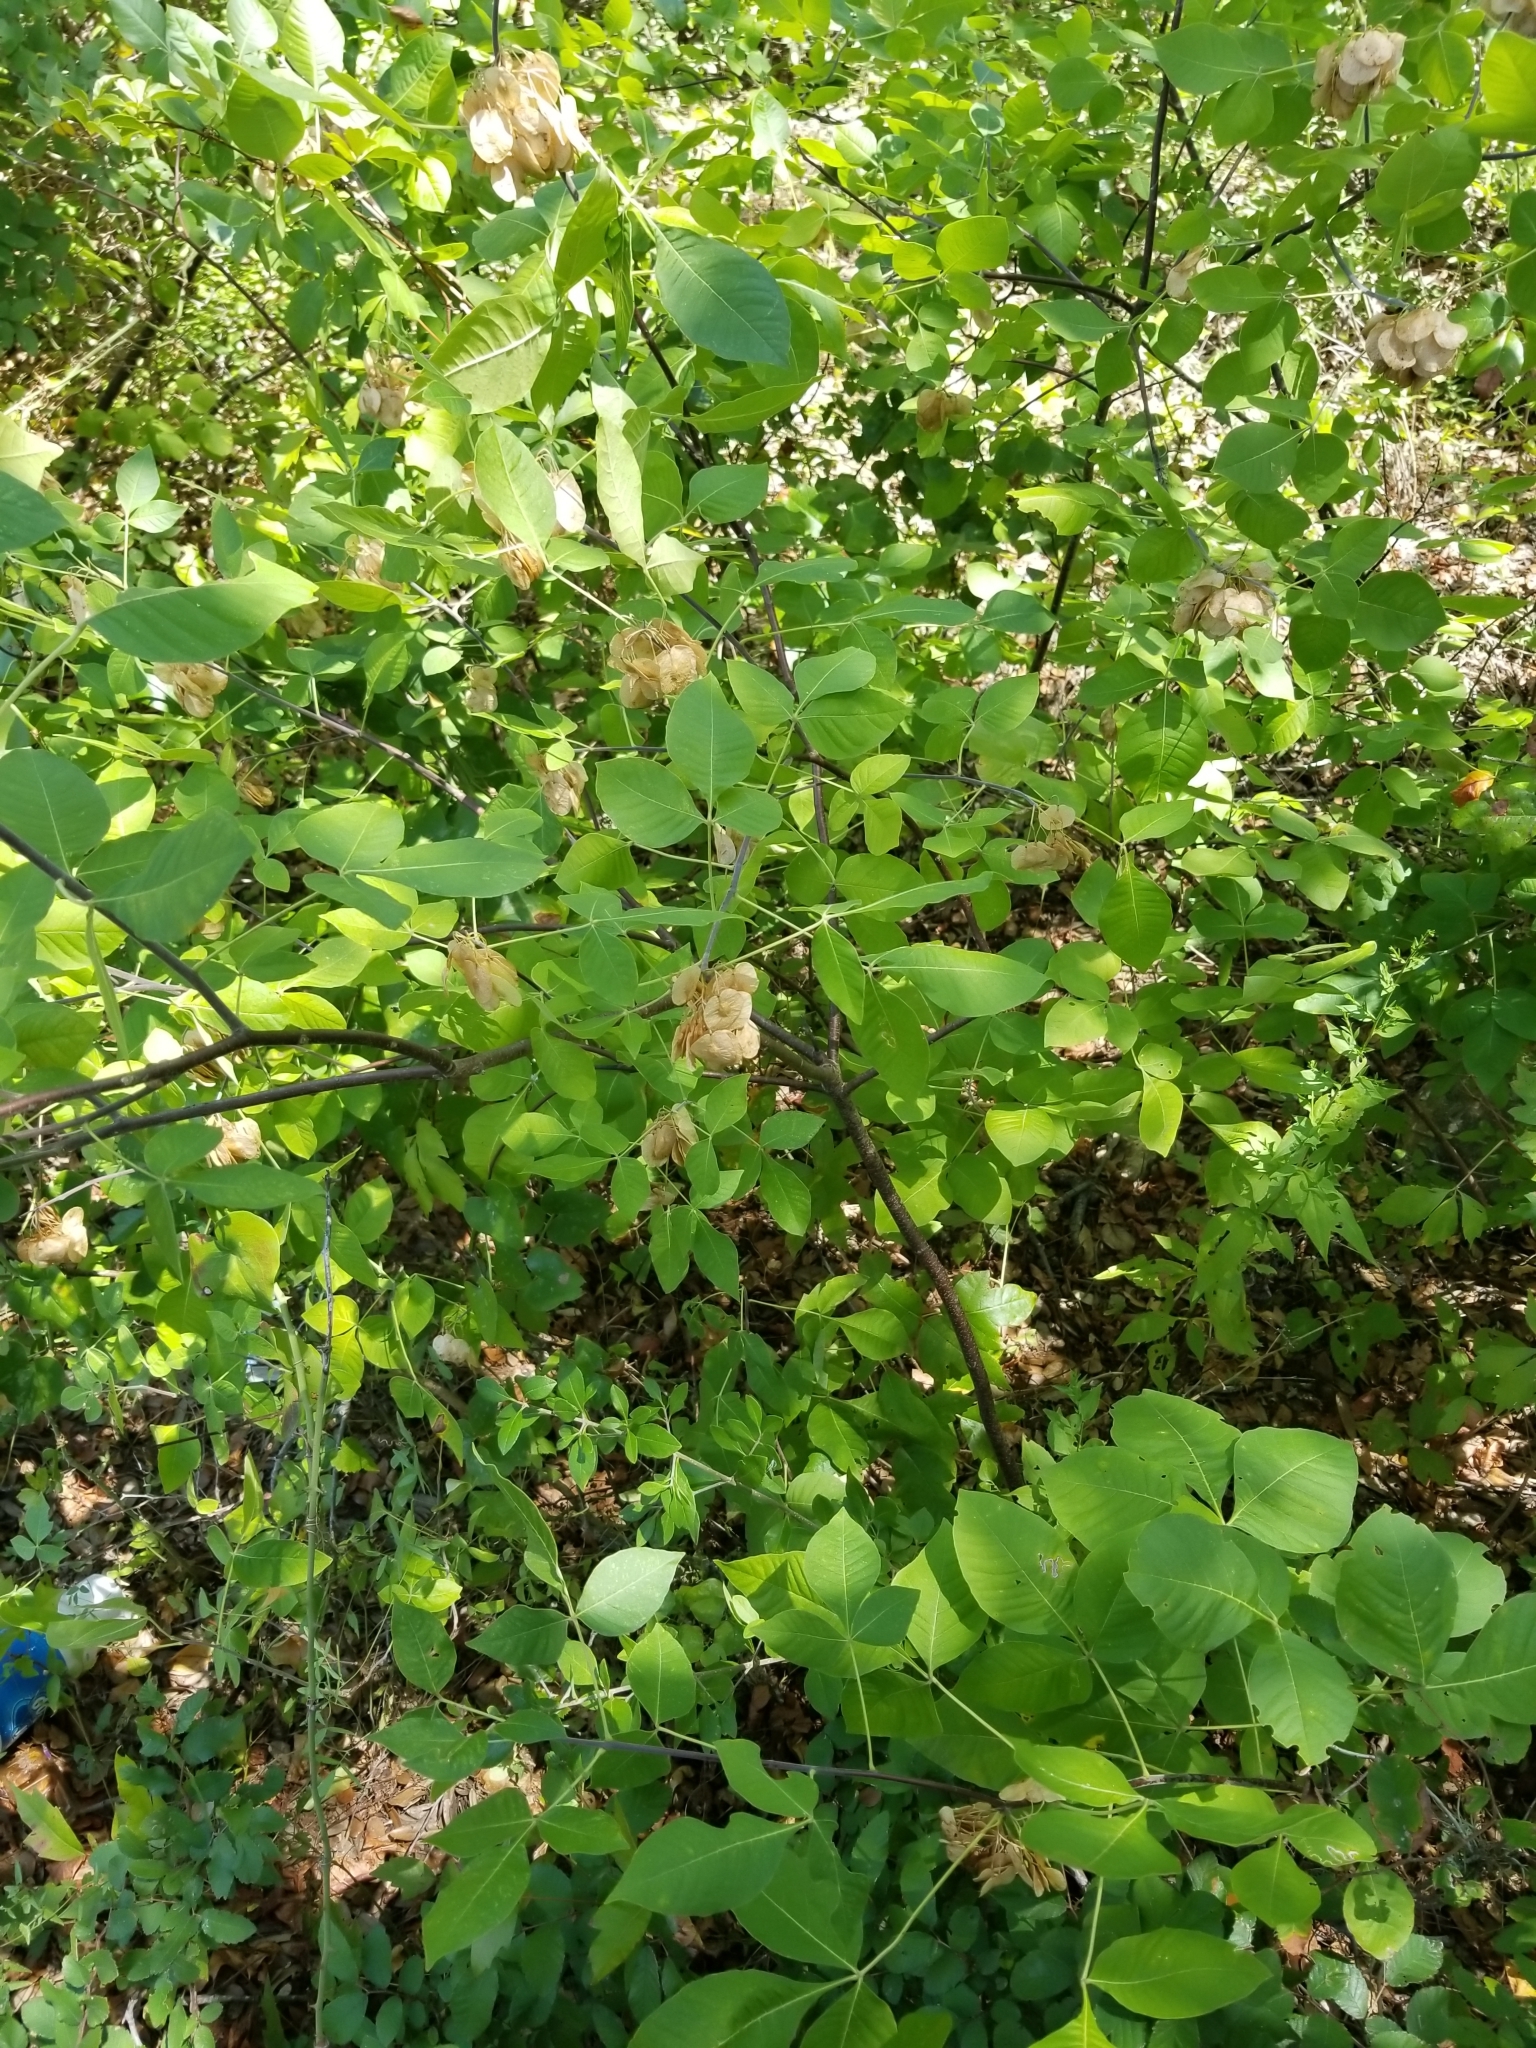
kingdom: Plantae
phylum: Tracheophyta
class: Magnoliopsida
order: Sapindales
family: Rutaceae
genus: Ptelea
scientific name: Ptelea trifoliata
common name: Common hop-tree
